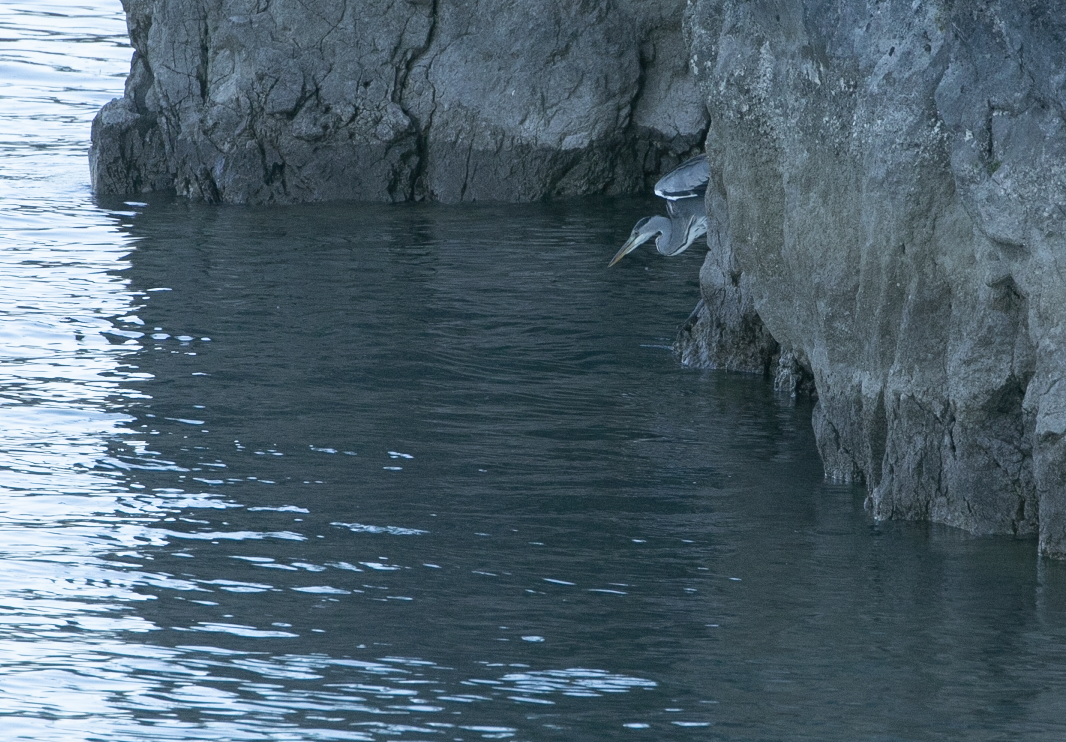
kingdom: Animalia
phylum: Chordata
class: Aves
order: Pelecaniformes
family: Ardeidae
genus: Ardea
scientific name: Ardea cinerea
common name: Grey heron
